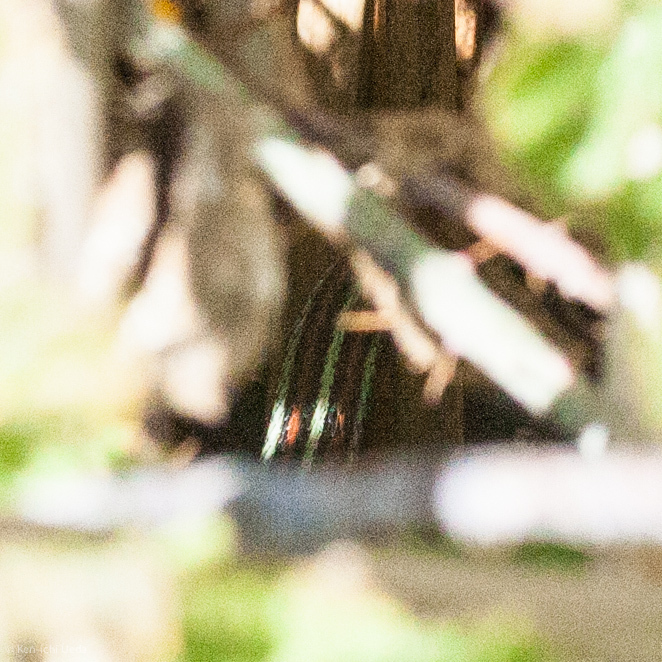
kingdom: Animalia
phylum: Chordata
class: Squamata
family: Colubridae
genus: Thamnophis
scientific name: Thamnophis sirtalis
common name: Common garter snake
